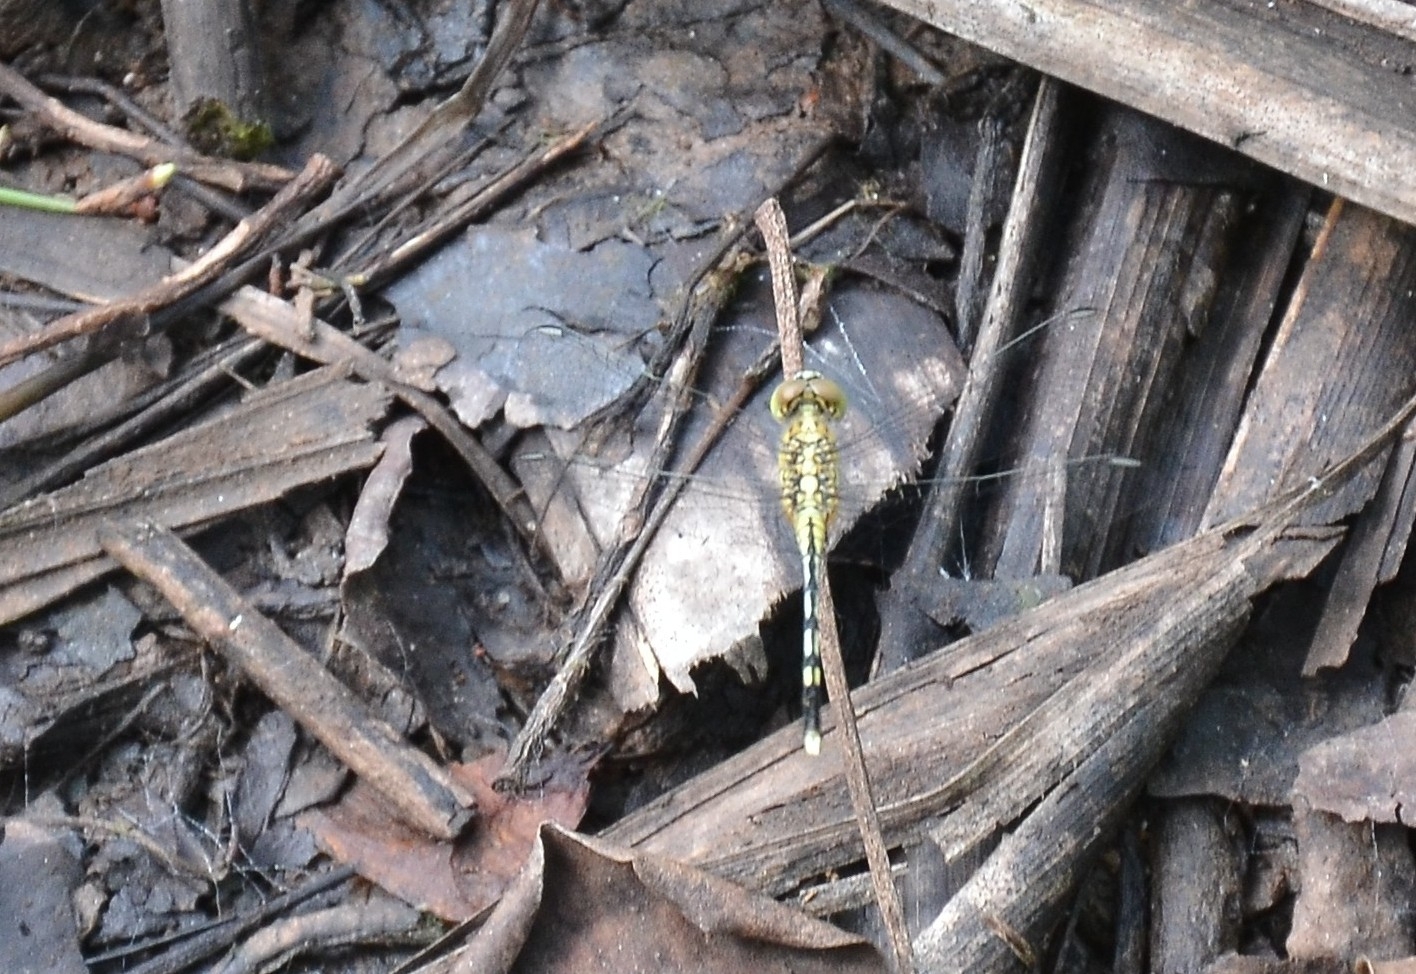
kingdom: Animalia
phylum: Arthropoda
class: Insecta
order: Odonata
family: Libellulidae
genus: Diplacodes
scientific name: Diplacodes trivialis
